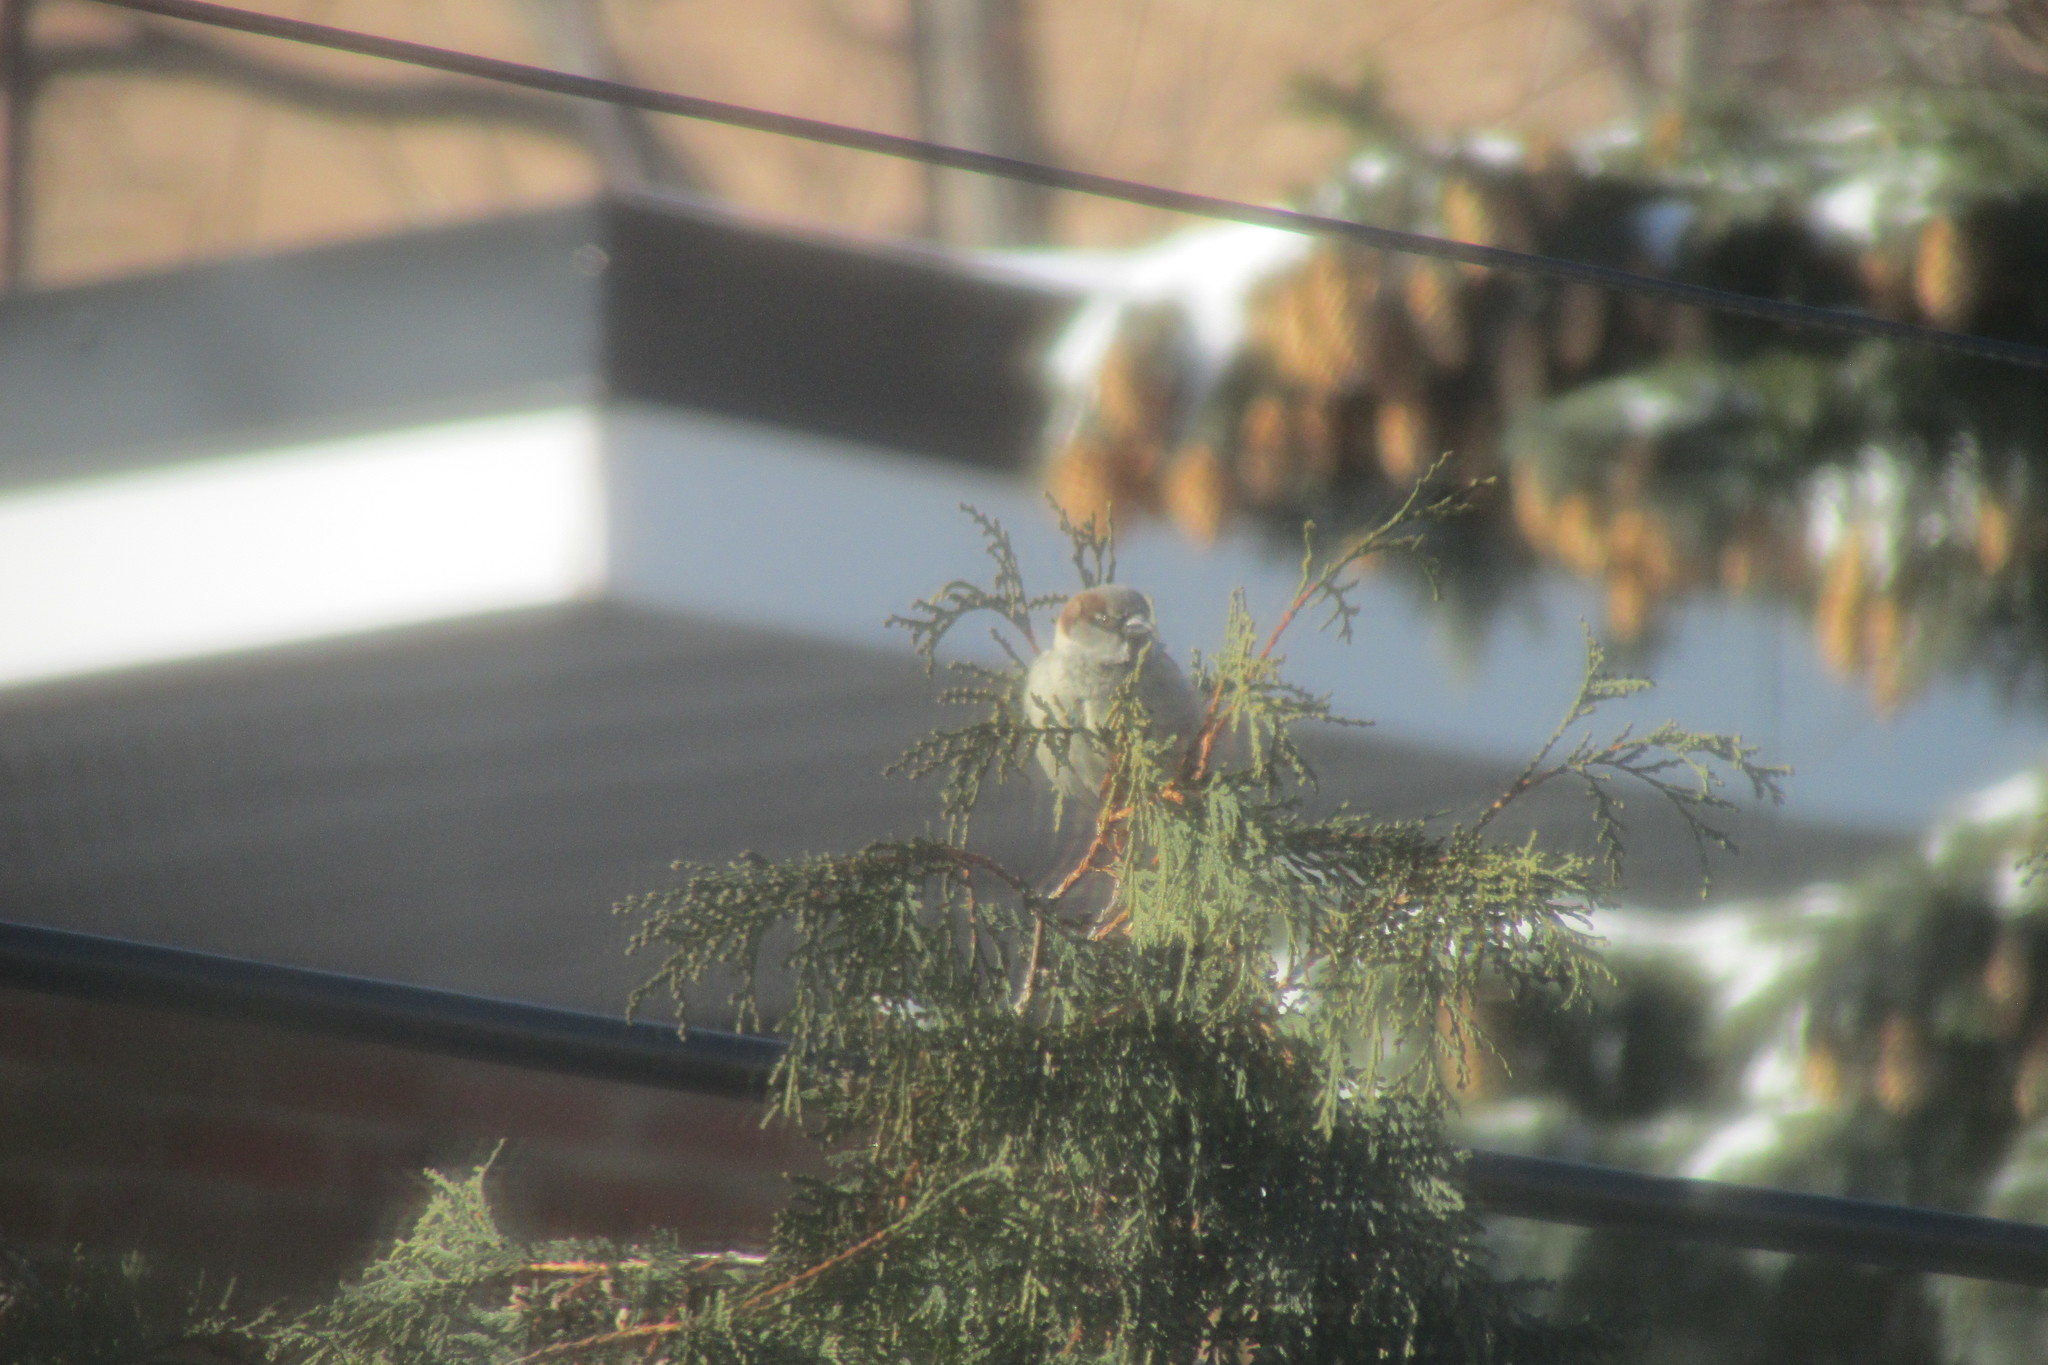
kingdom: Animalia
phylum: Chordata
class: Aves
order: Passeriformes
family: Passeridae
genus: Passer
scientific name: Passer domesticus
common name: House sparrow
